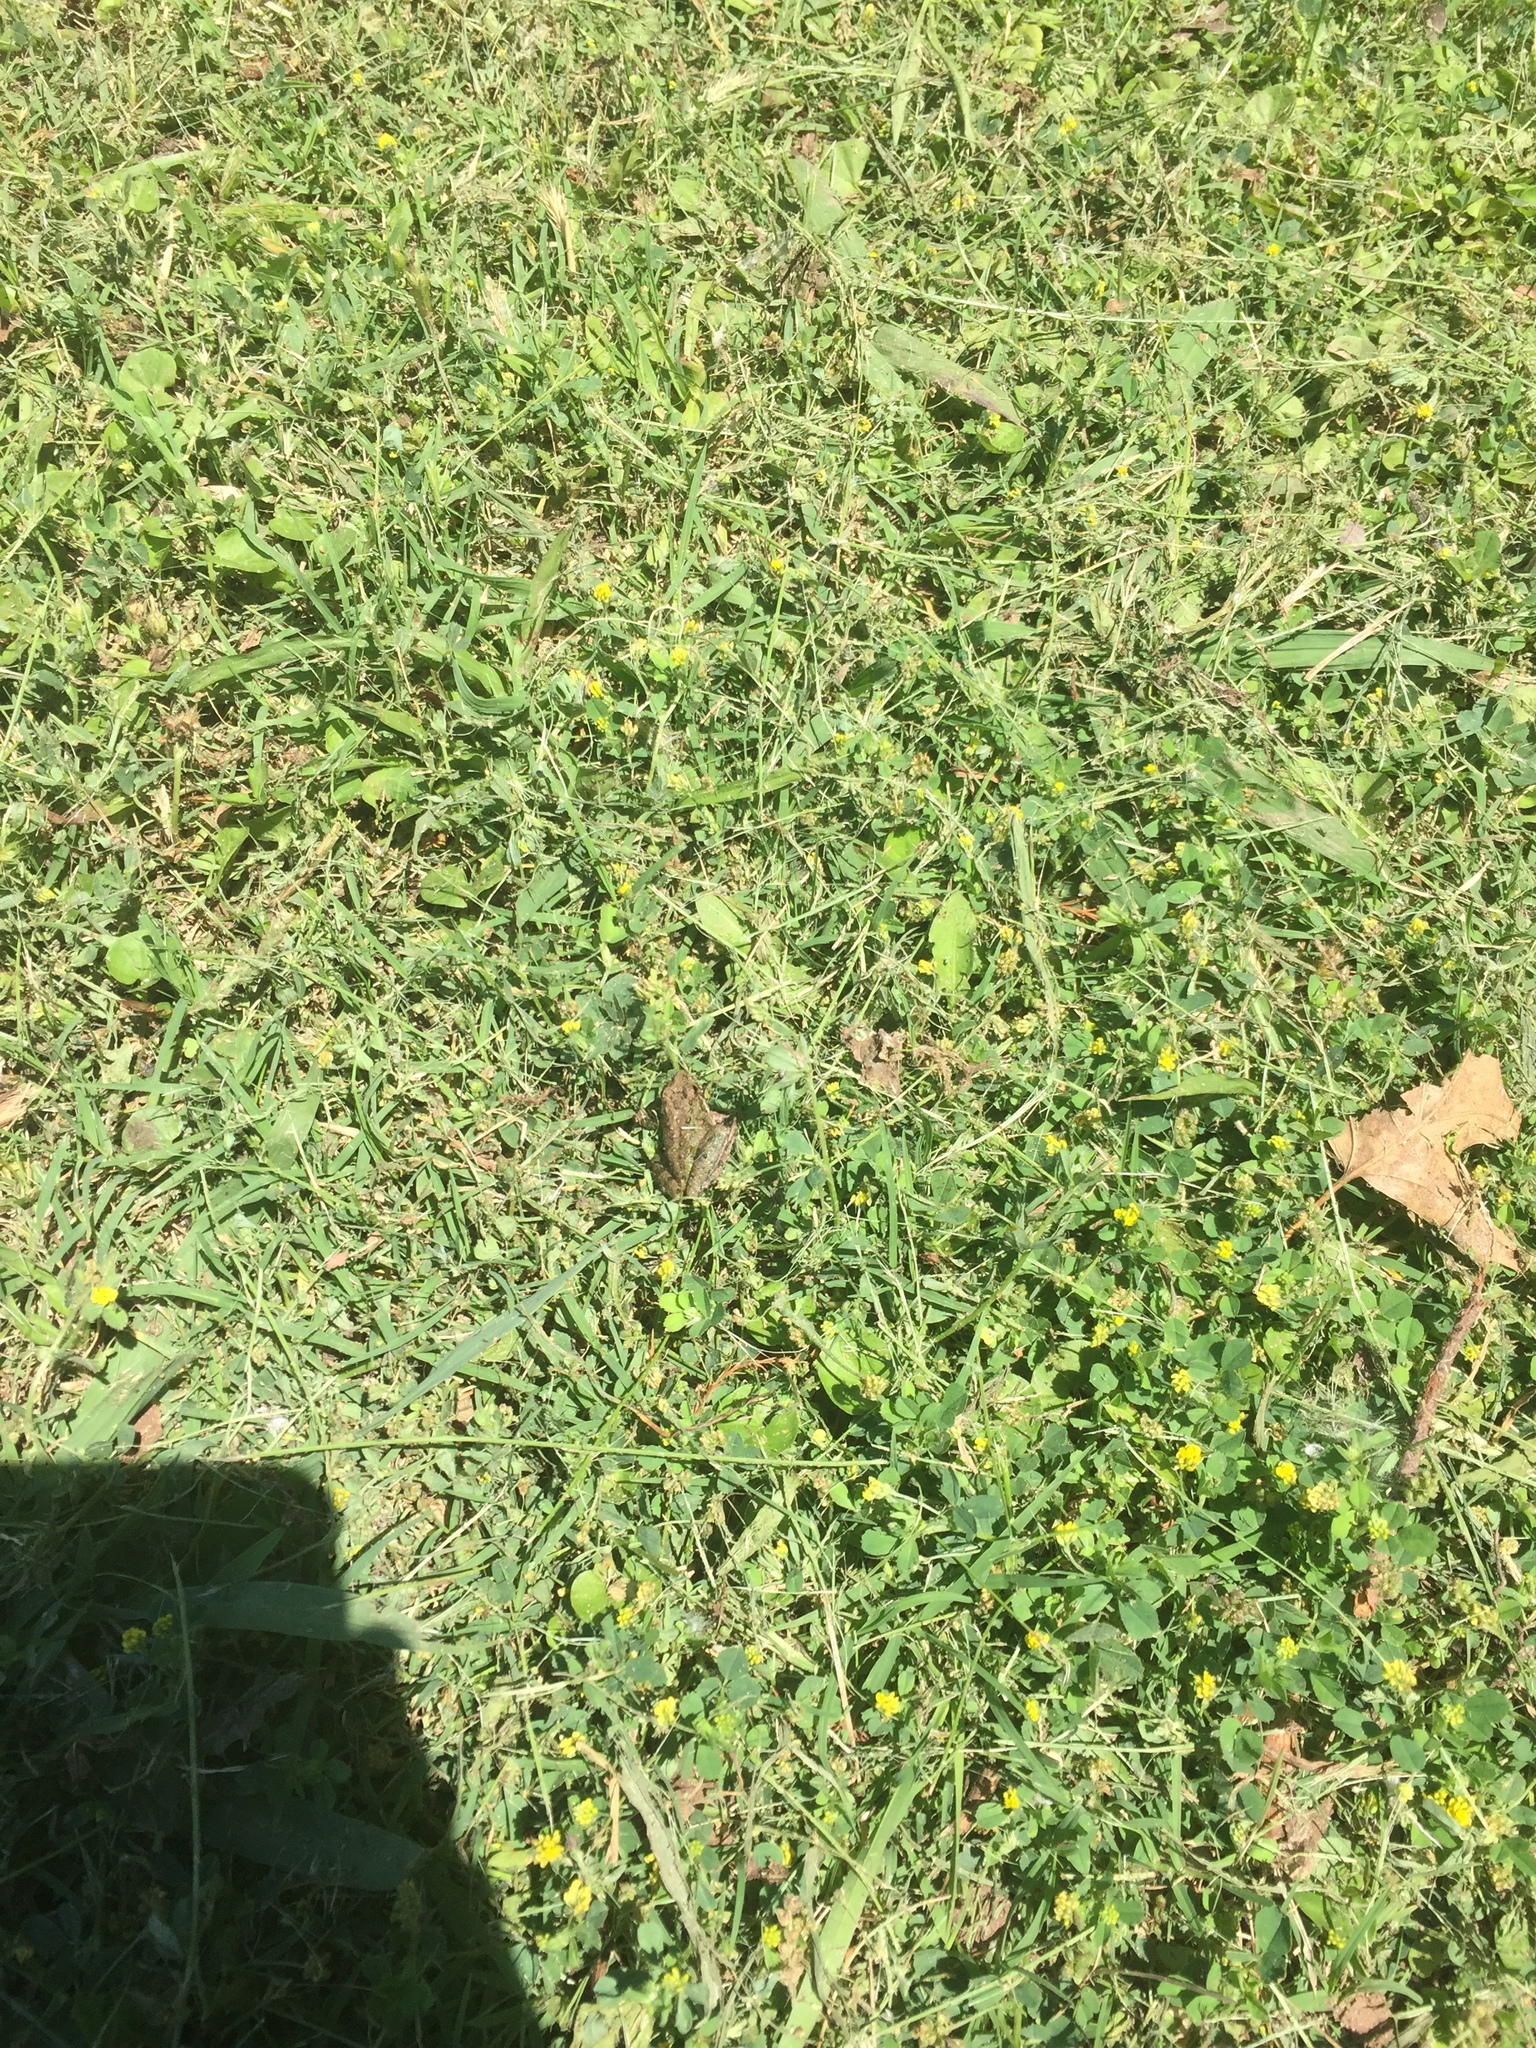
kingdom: Animalia
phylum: Chordata
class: Amphibia
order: Anura
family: Hylidae
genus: Acris
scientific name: Acris blanchardi
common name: Blanchard's cricket frog
